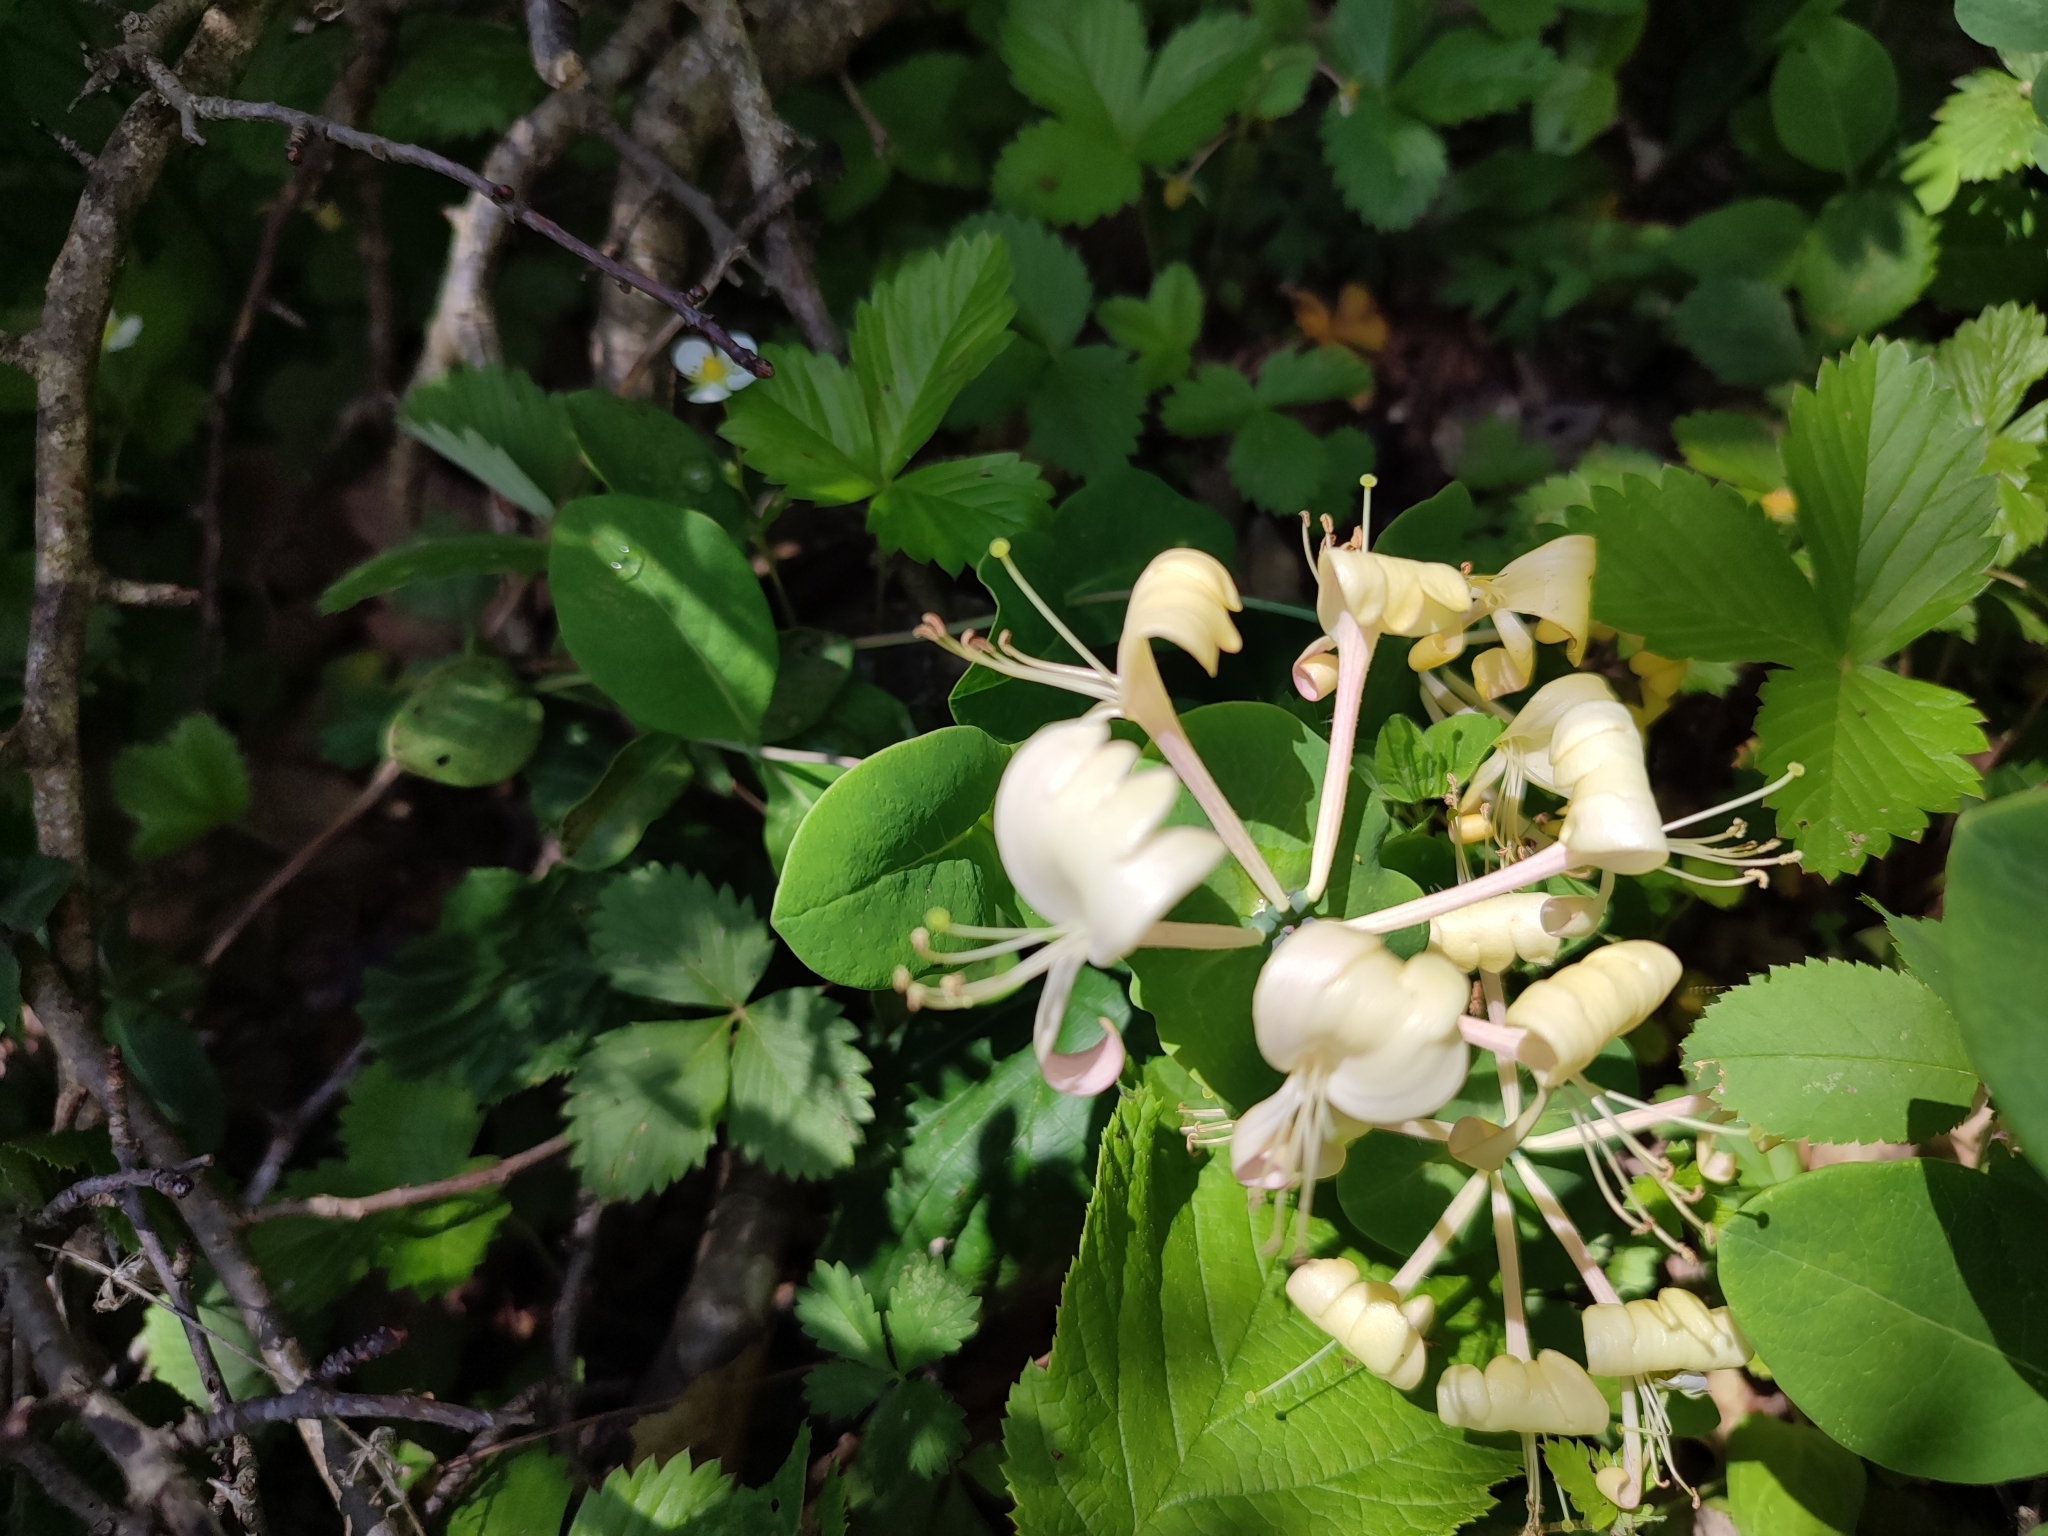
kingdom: Plantae
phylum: Tracheophyta
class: Magnoliopsida
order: Dipsacales
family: Caprifoliaceae
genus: Lonicera
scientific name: Lonicera caprifolium
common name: Perfoliate honeysuckle
